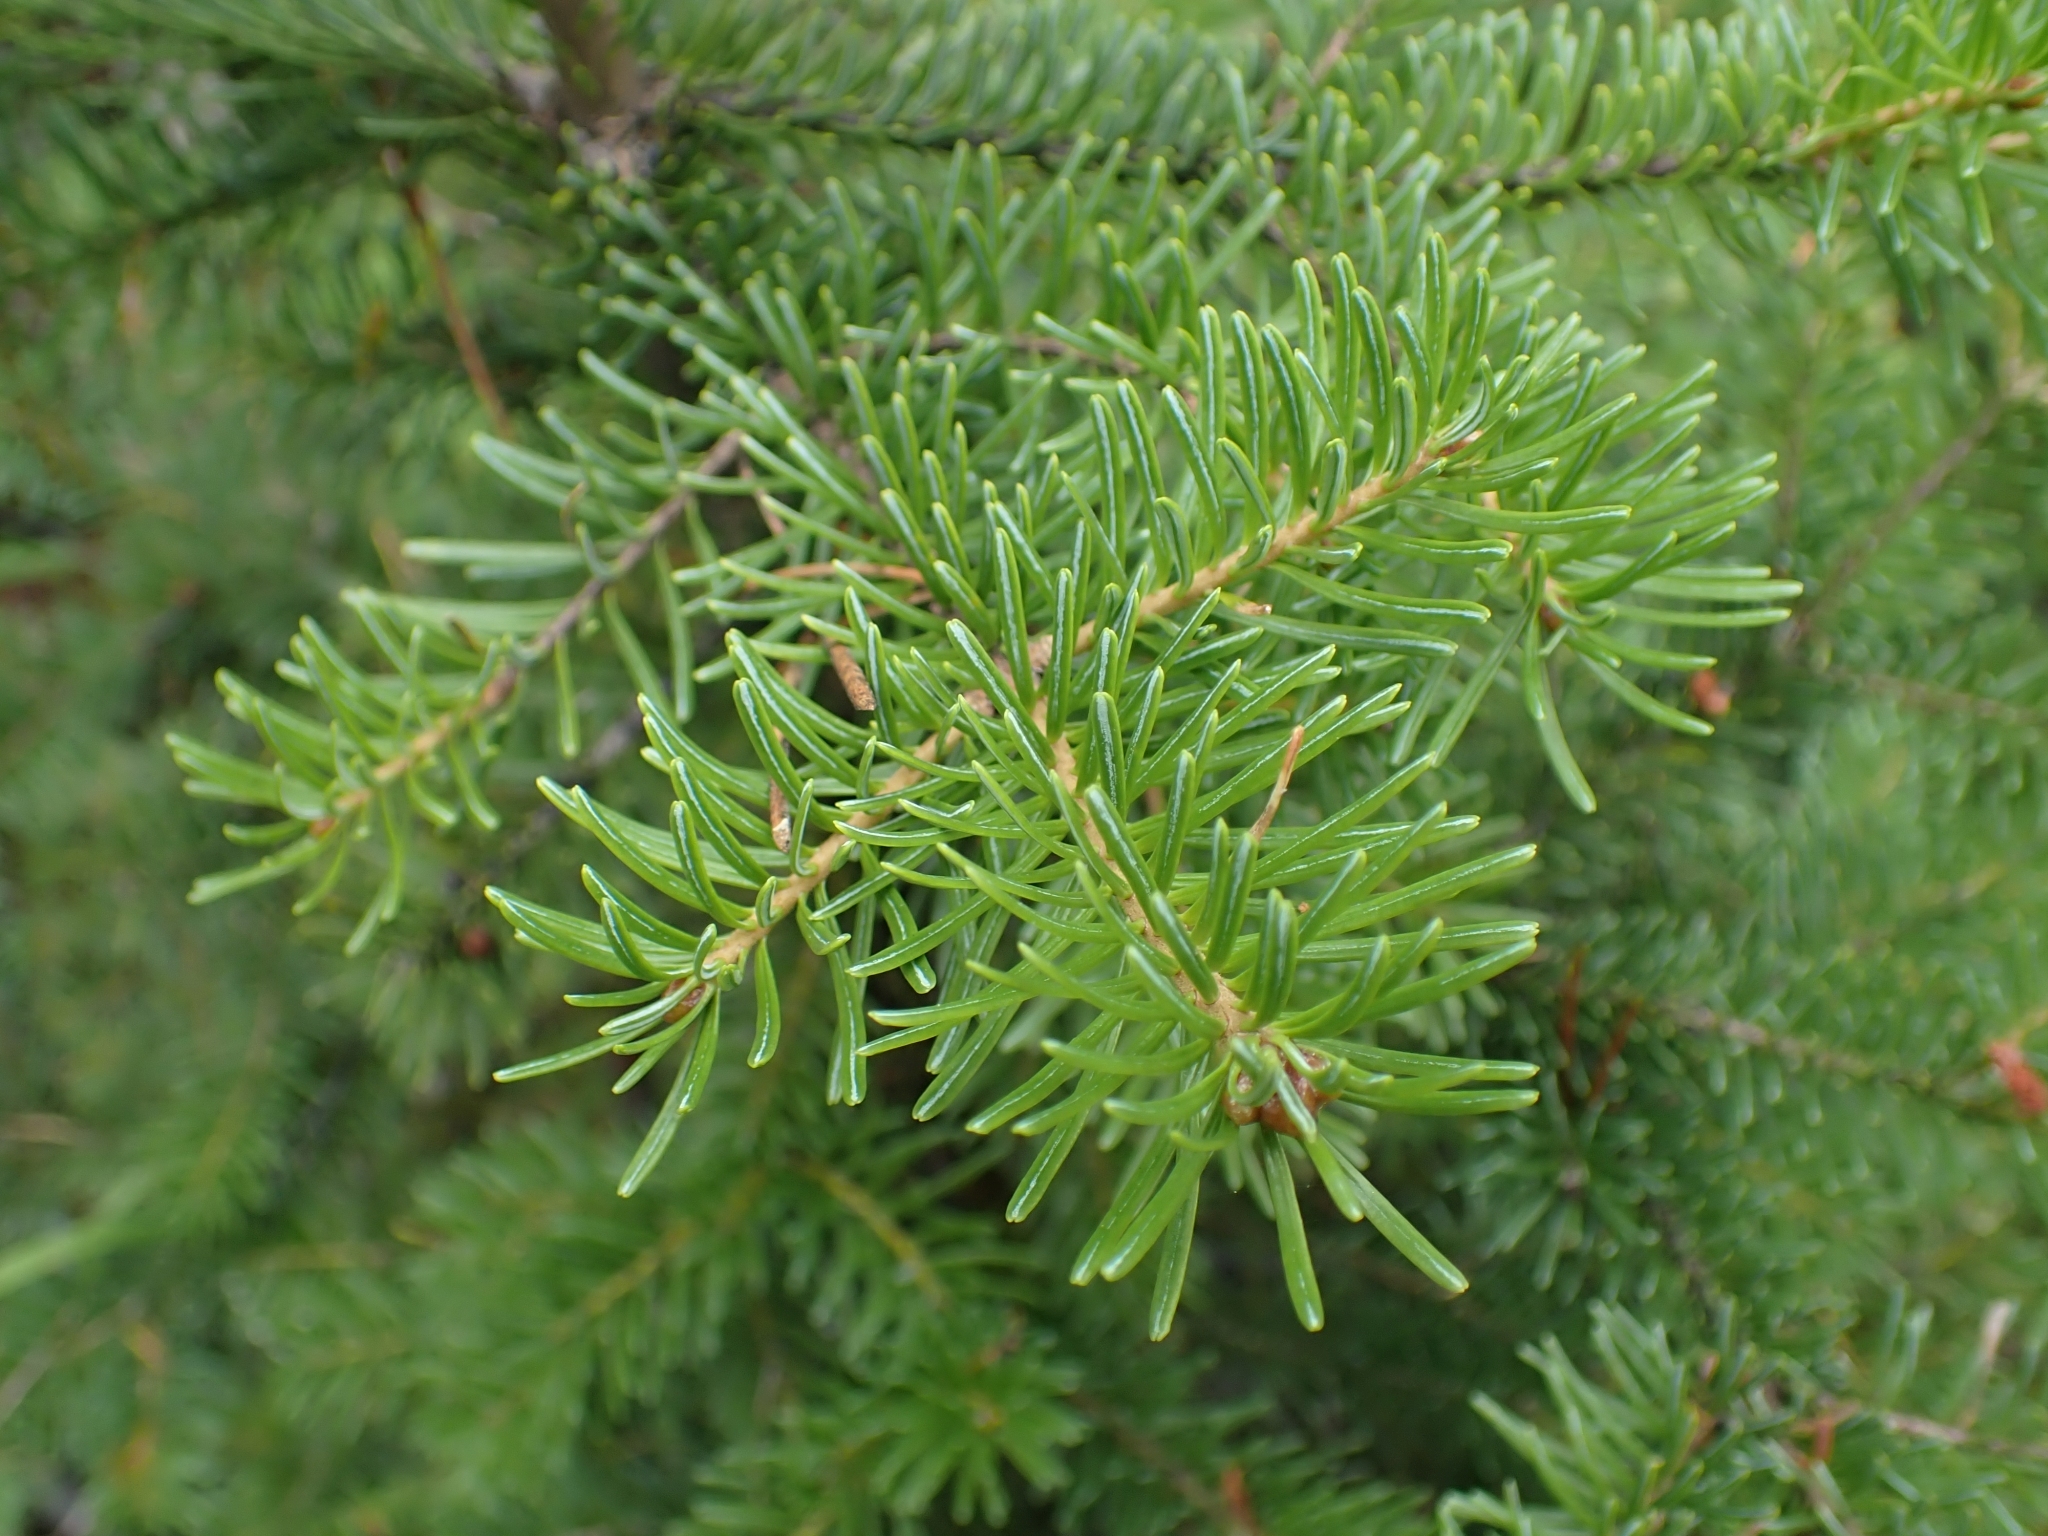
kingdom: Plantae
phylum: Tracheophyta
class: Pinopsida
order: Pinales
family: Pinaceae
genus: Abies
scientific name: Abies lasiocarpa
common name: Subalpine fir
